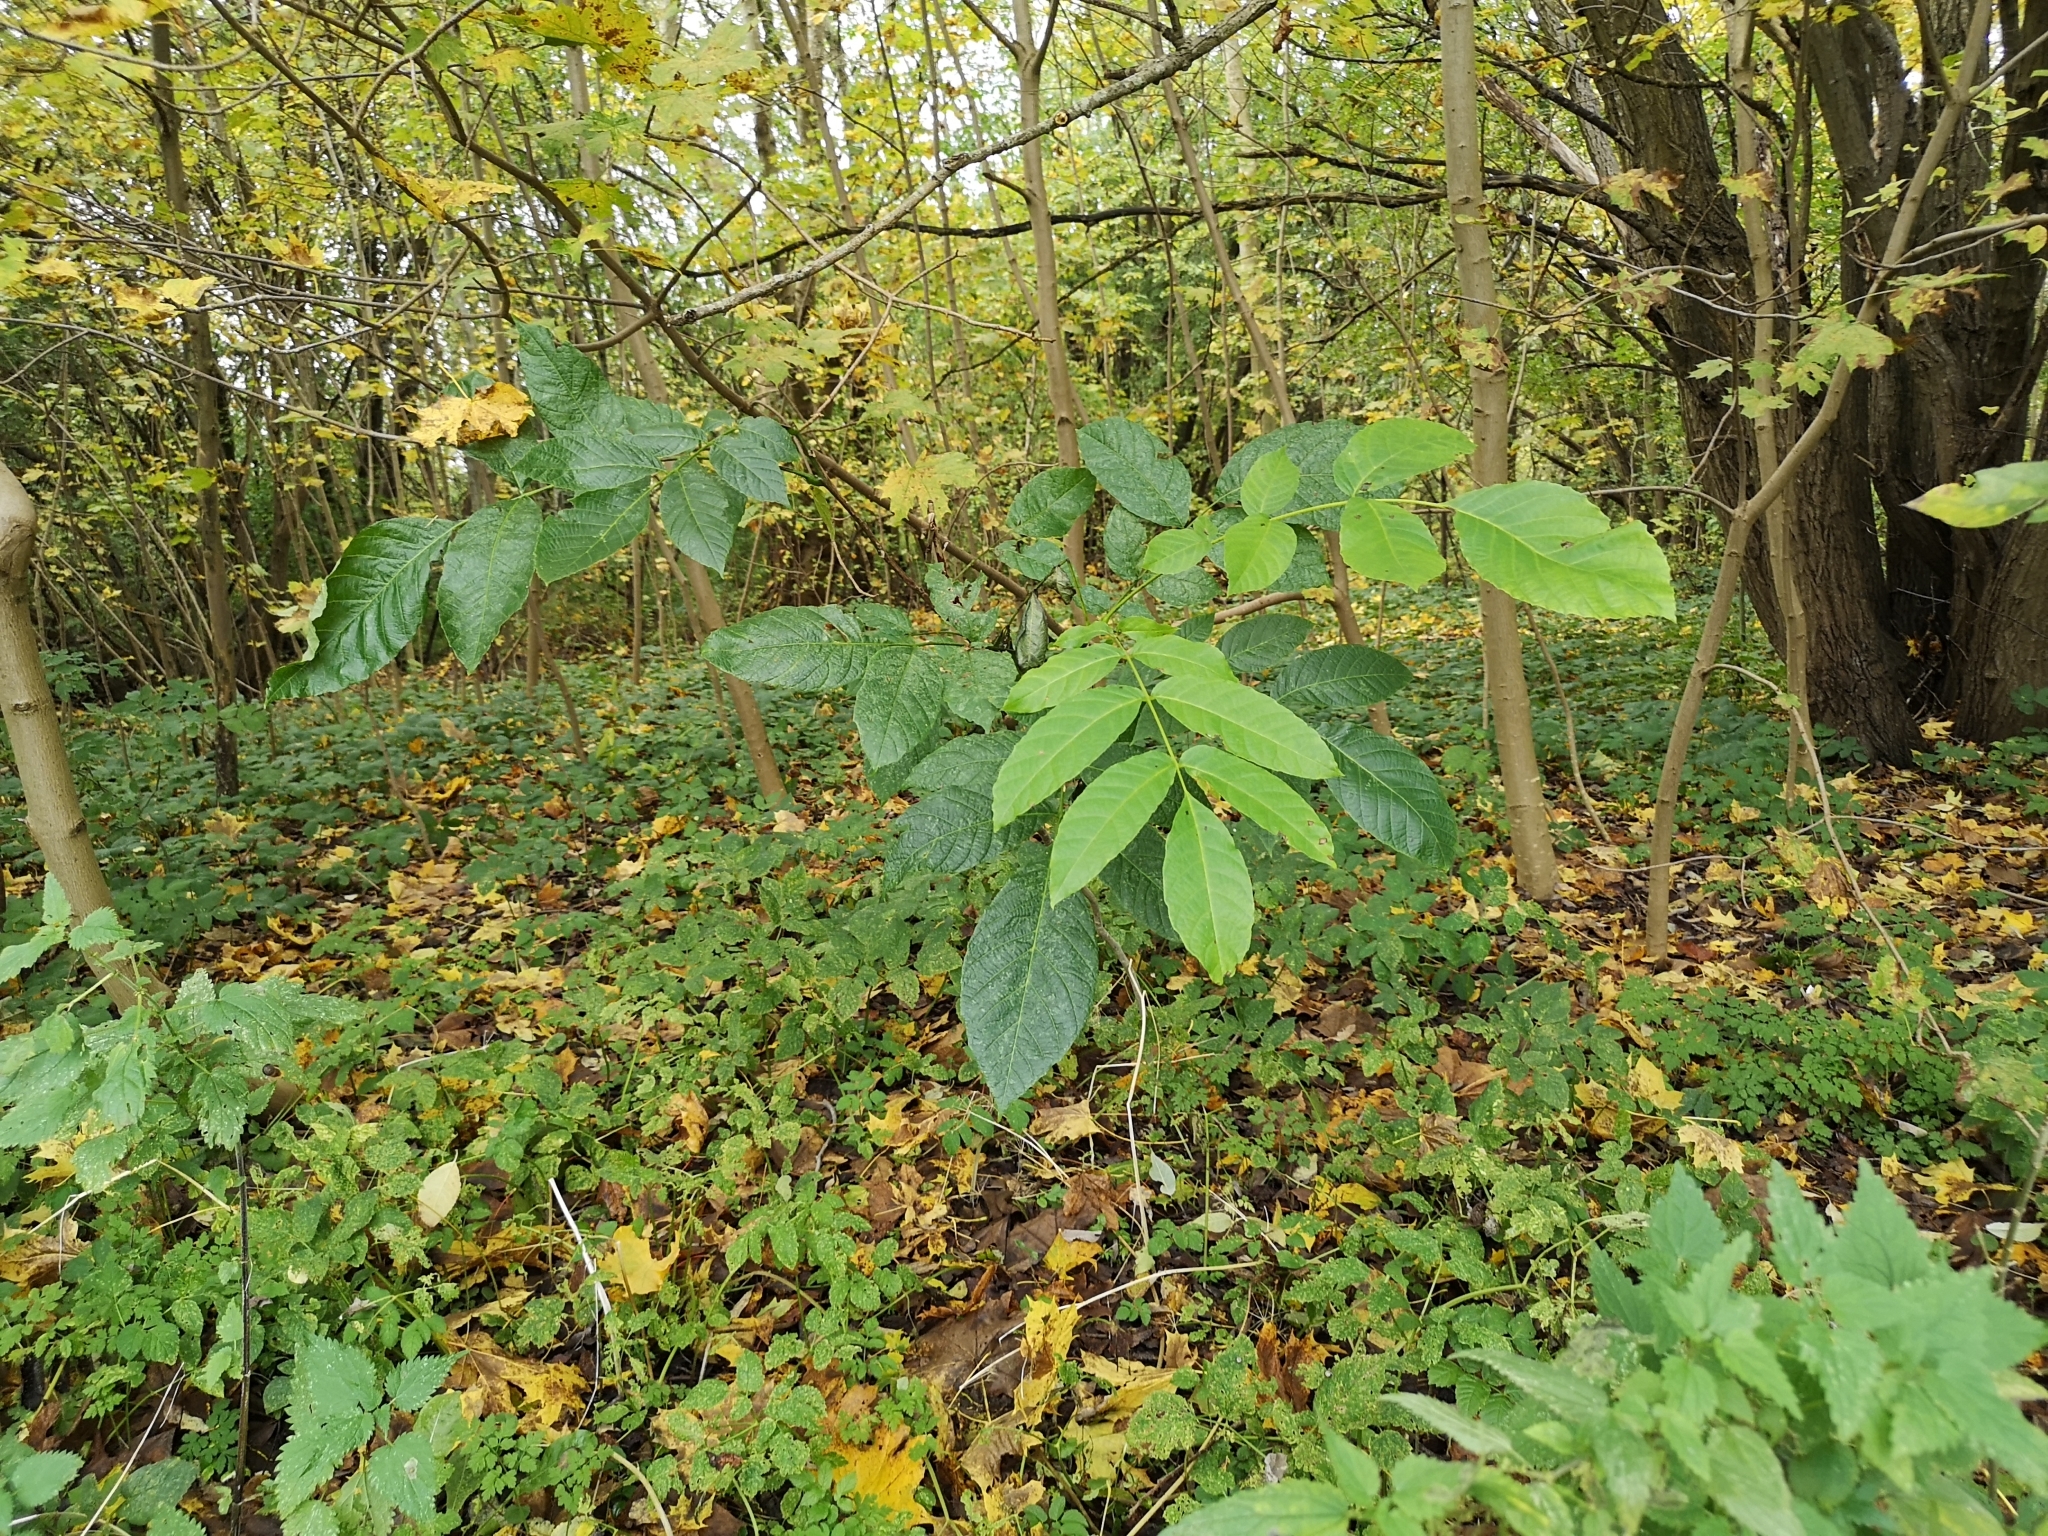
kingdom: Plantae
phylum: Tracheophyta
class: Magnoliopsida
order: Fagales
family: Juglandaceae
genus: Juglans
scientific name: Juglans regia
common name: Walnut
